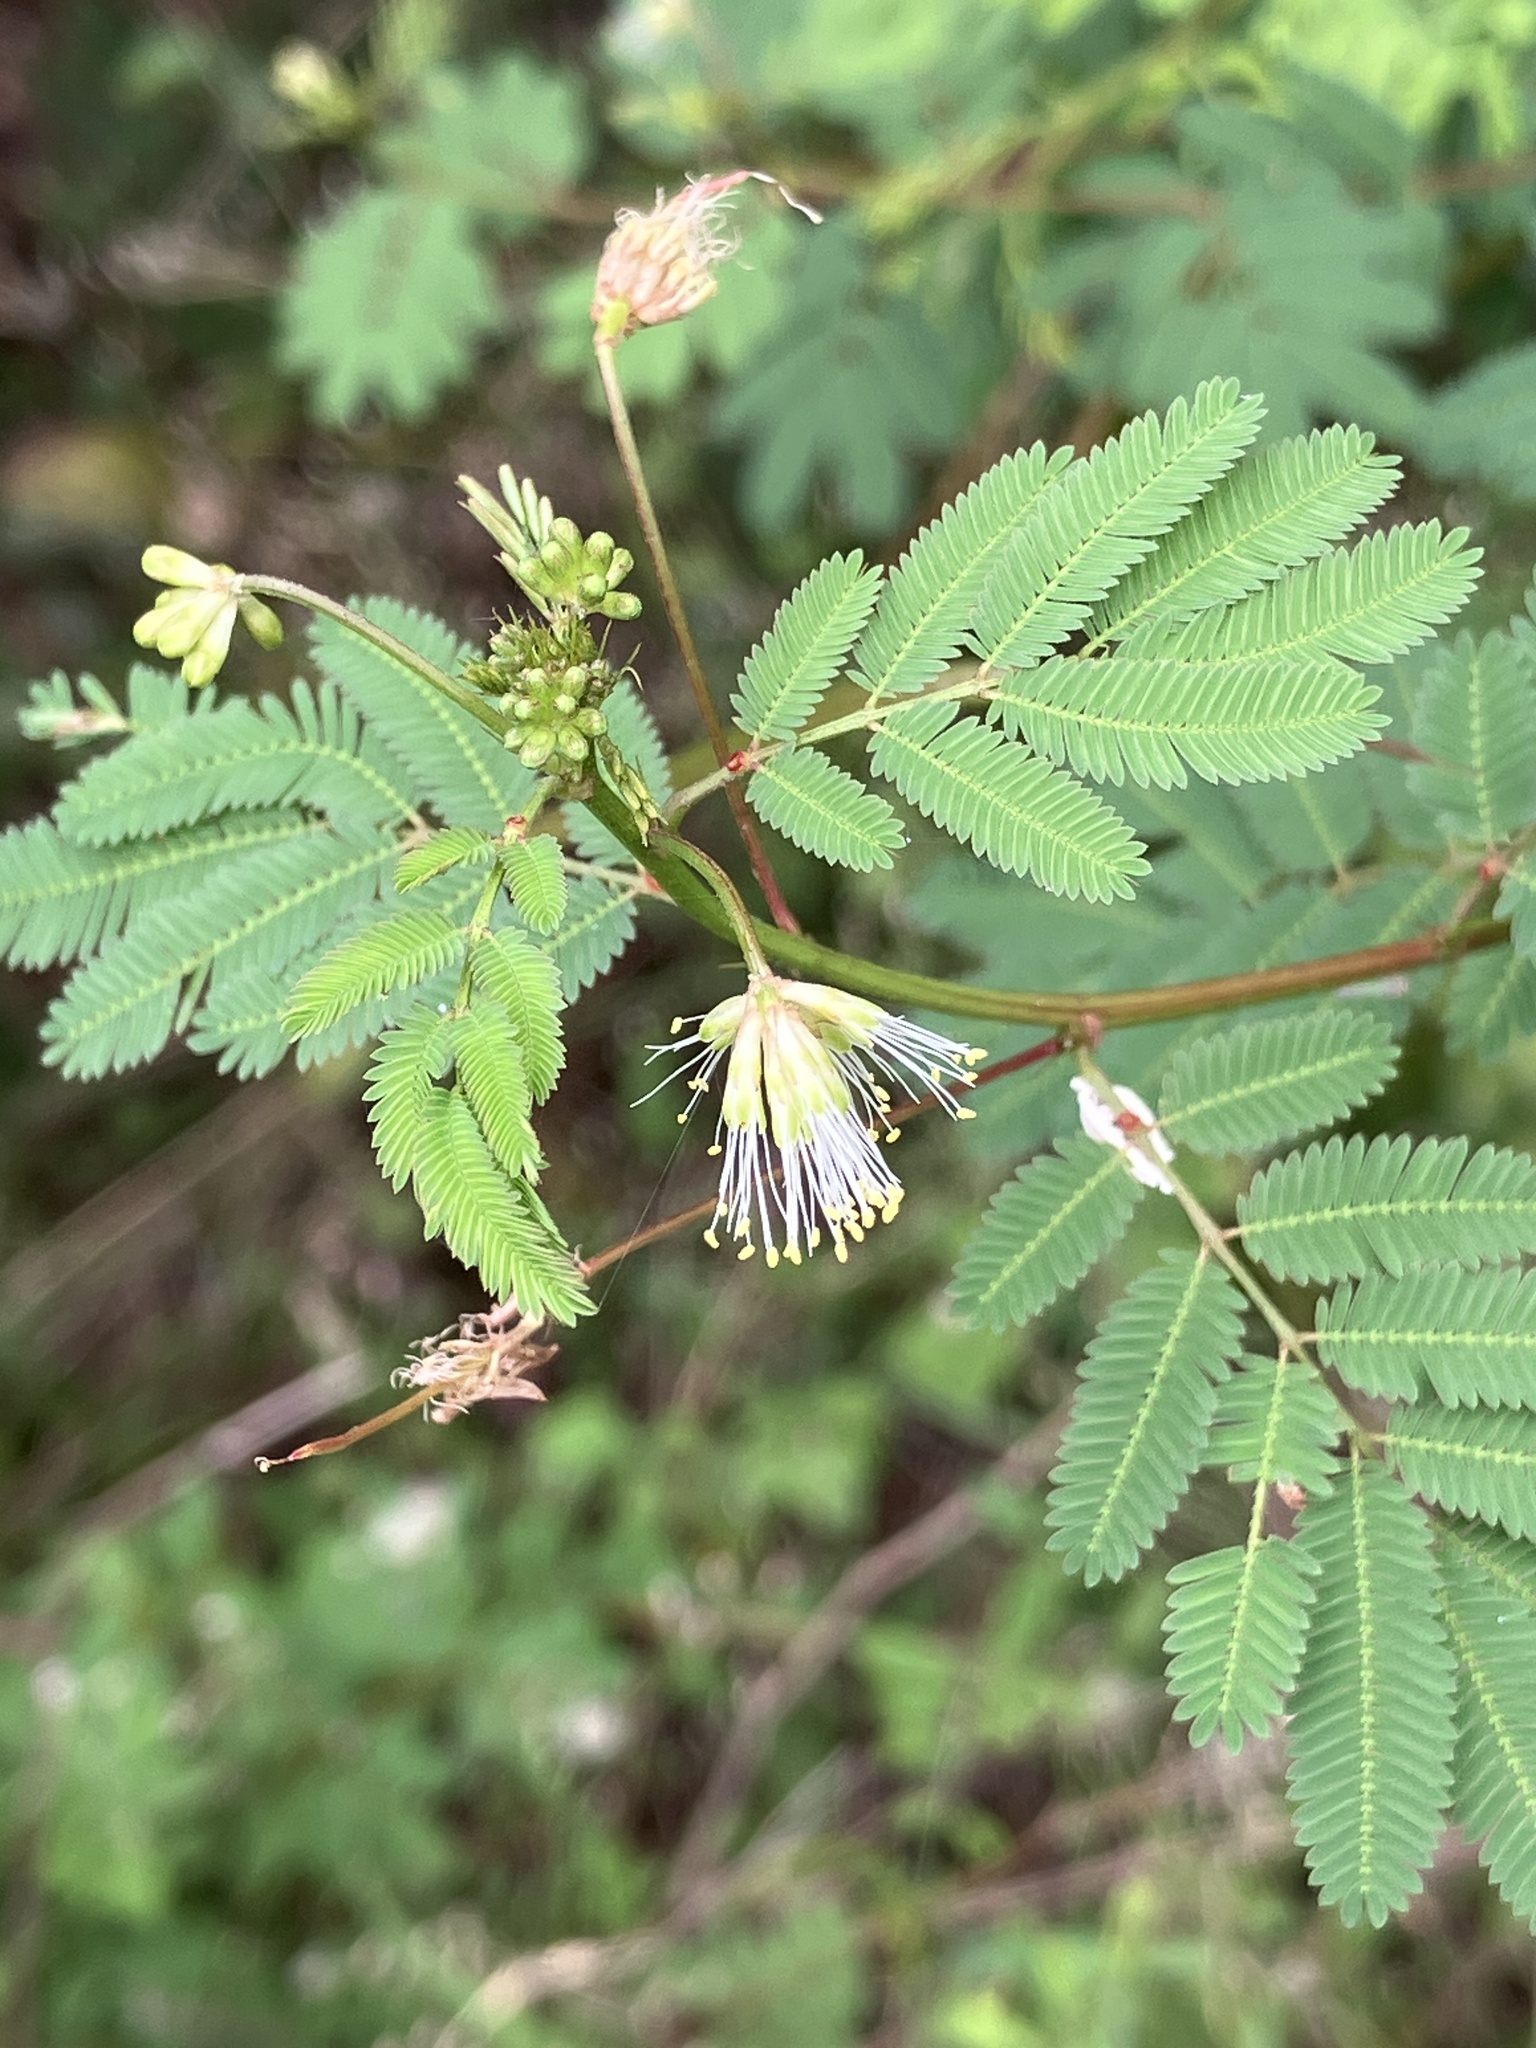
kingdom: Plantae
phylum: Tracheophyta
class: Magnoliopsida
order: Fabales
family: Fabaceae
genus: Desmanthus
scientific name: Desmanthus virgatus
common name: Wild tantan
